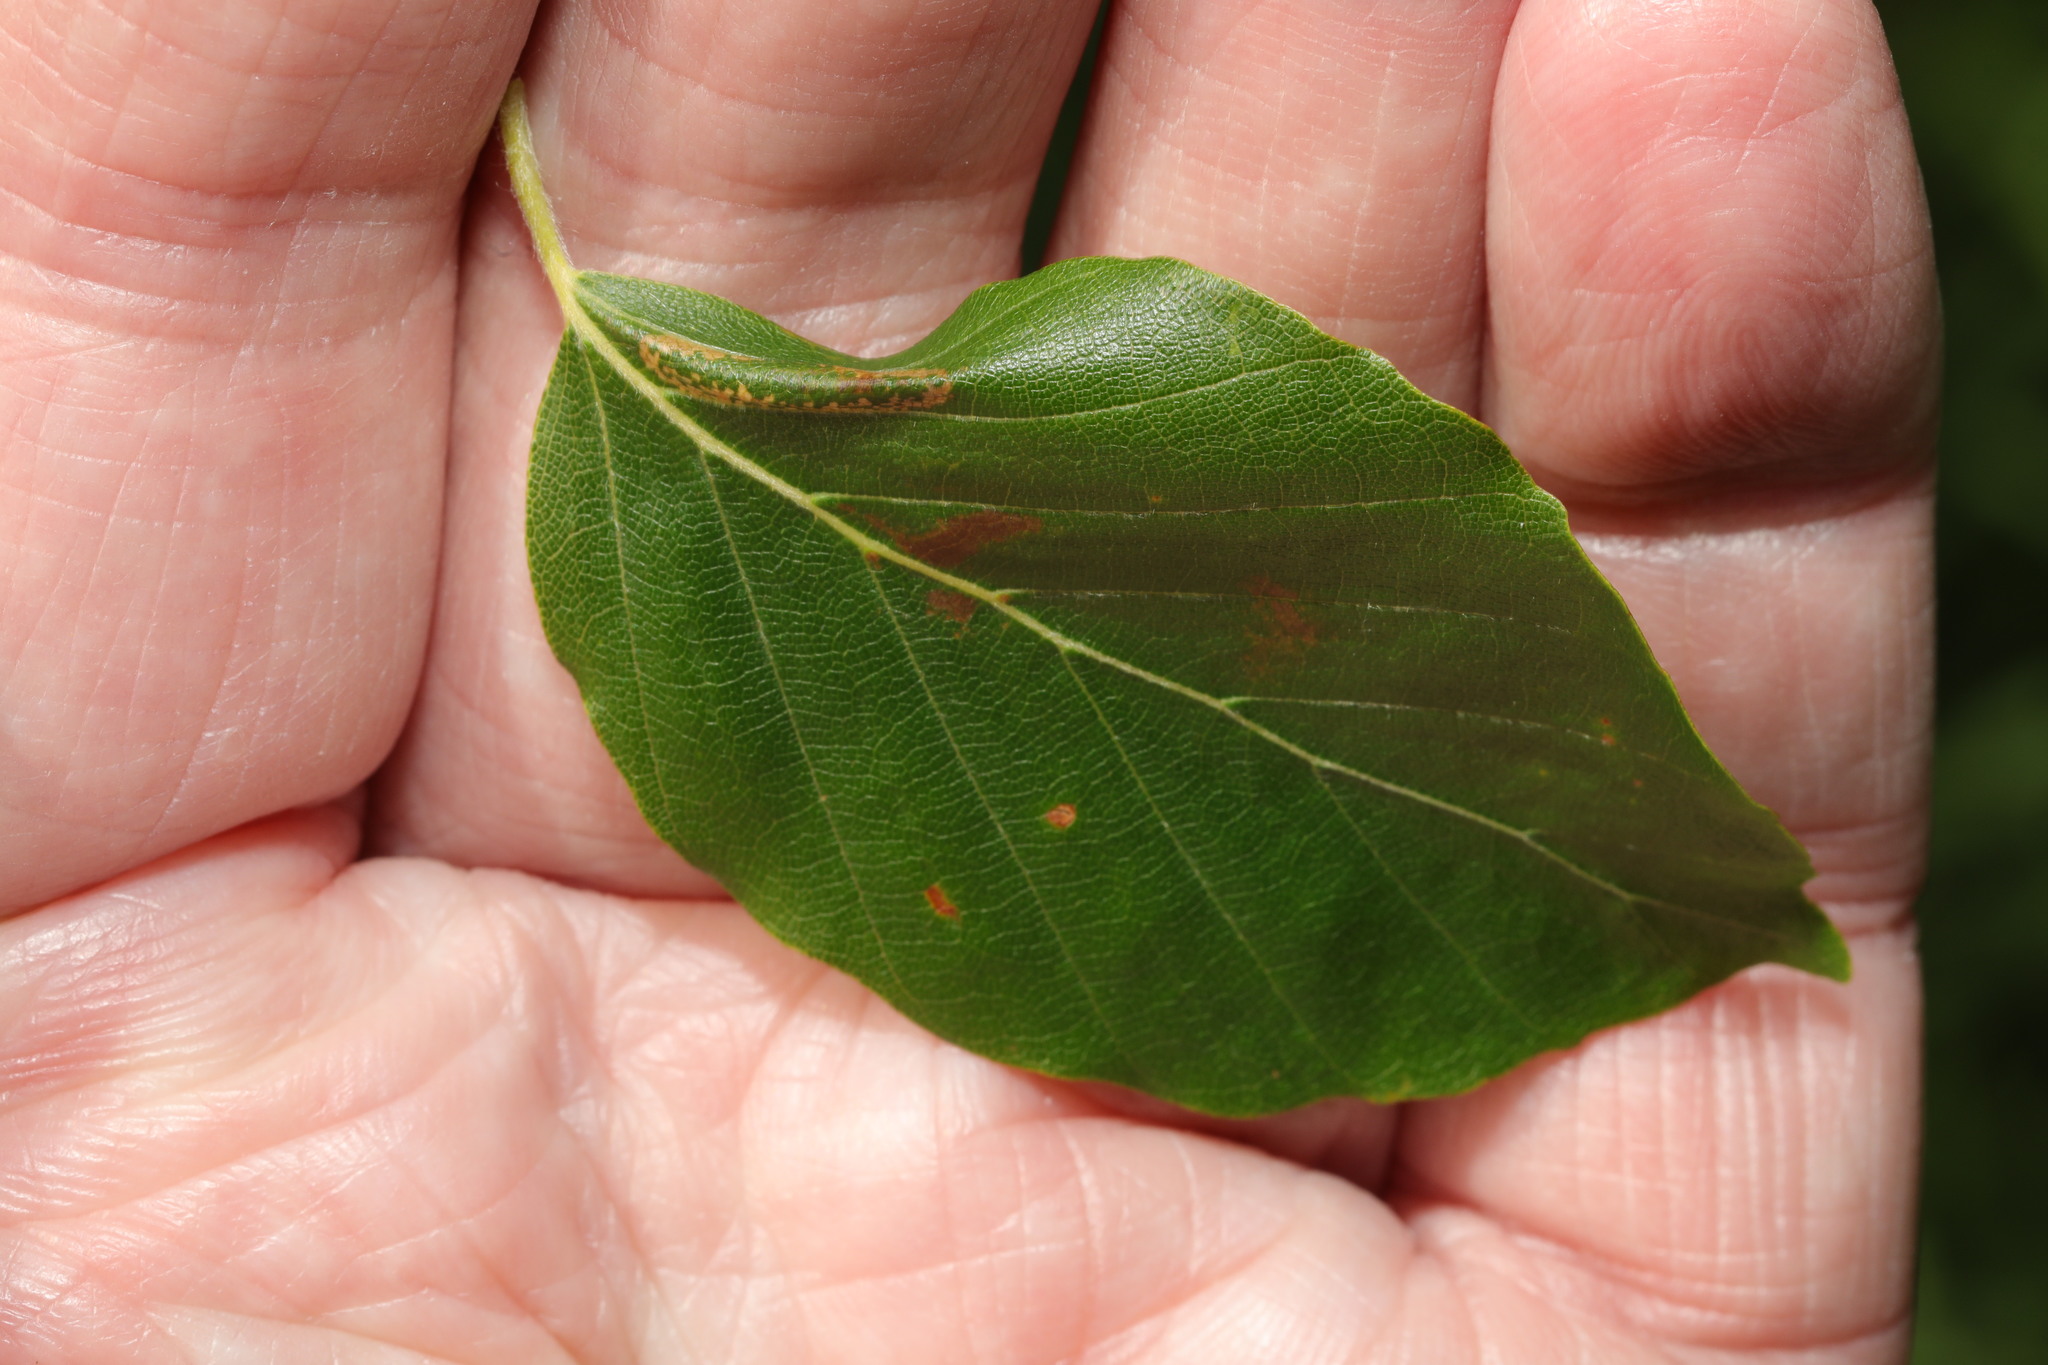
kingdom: Animalia
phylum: Arthropoda
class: Insecta
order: Lepidoptera
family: Gracillariidae
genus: Phyllonorycter
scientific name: Phyllonorycter maestingella
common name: Beech midget
